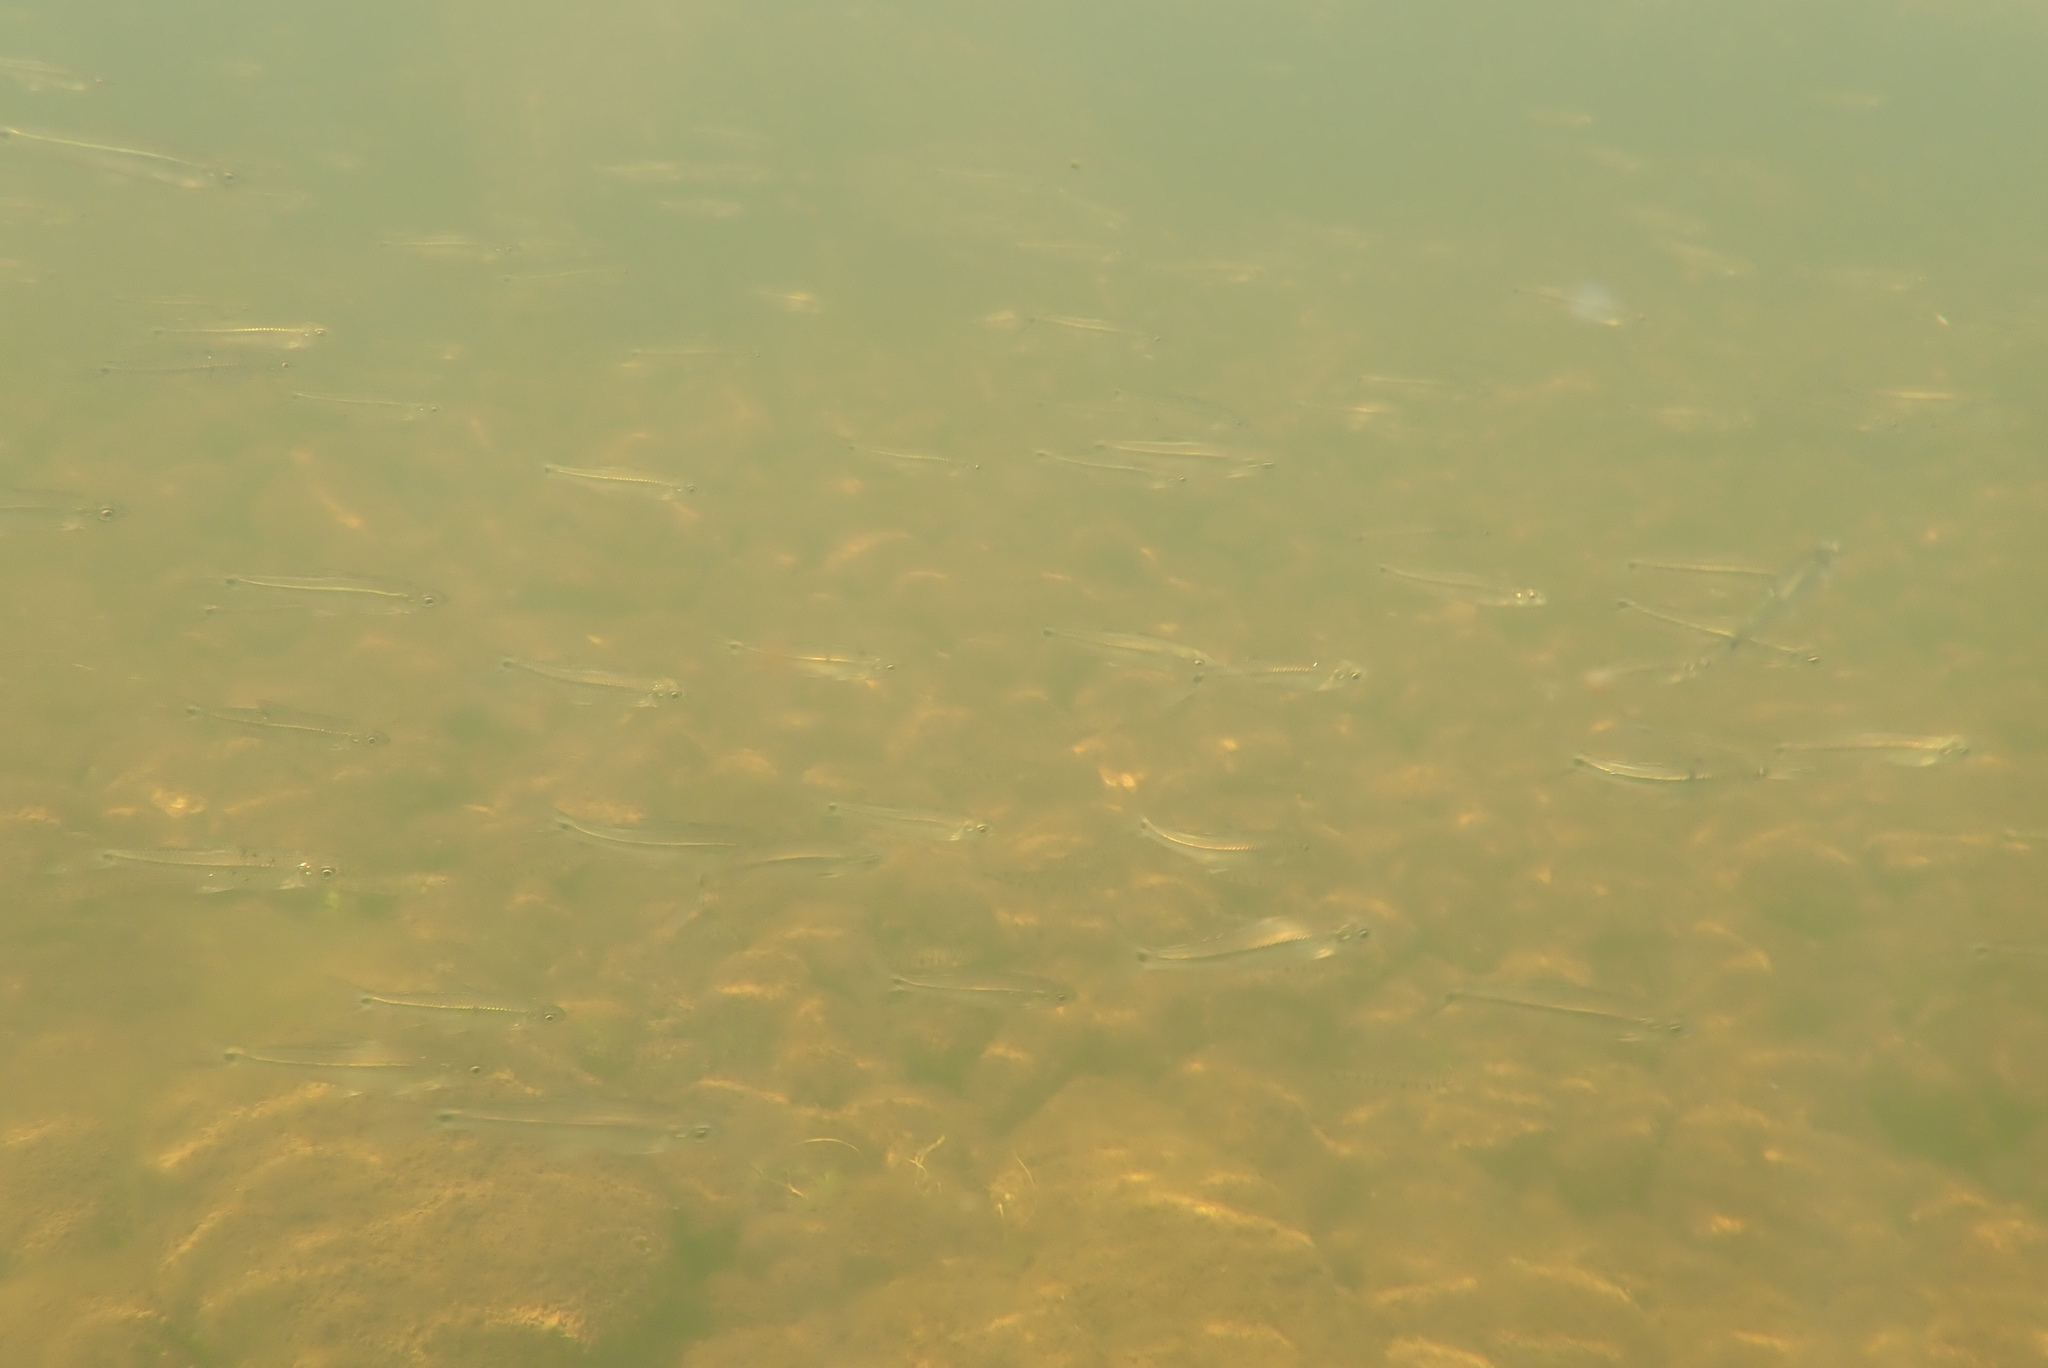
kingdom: Animalia
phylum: Chordata
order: Cypriniformes
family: Cyprinidae
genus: Notropis
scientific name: Notropis
